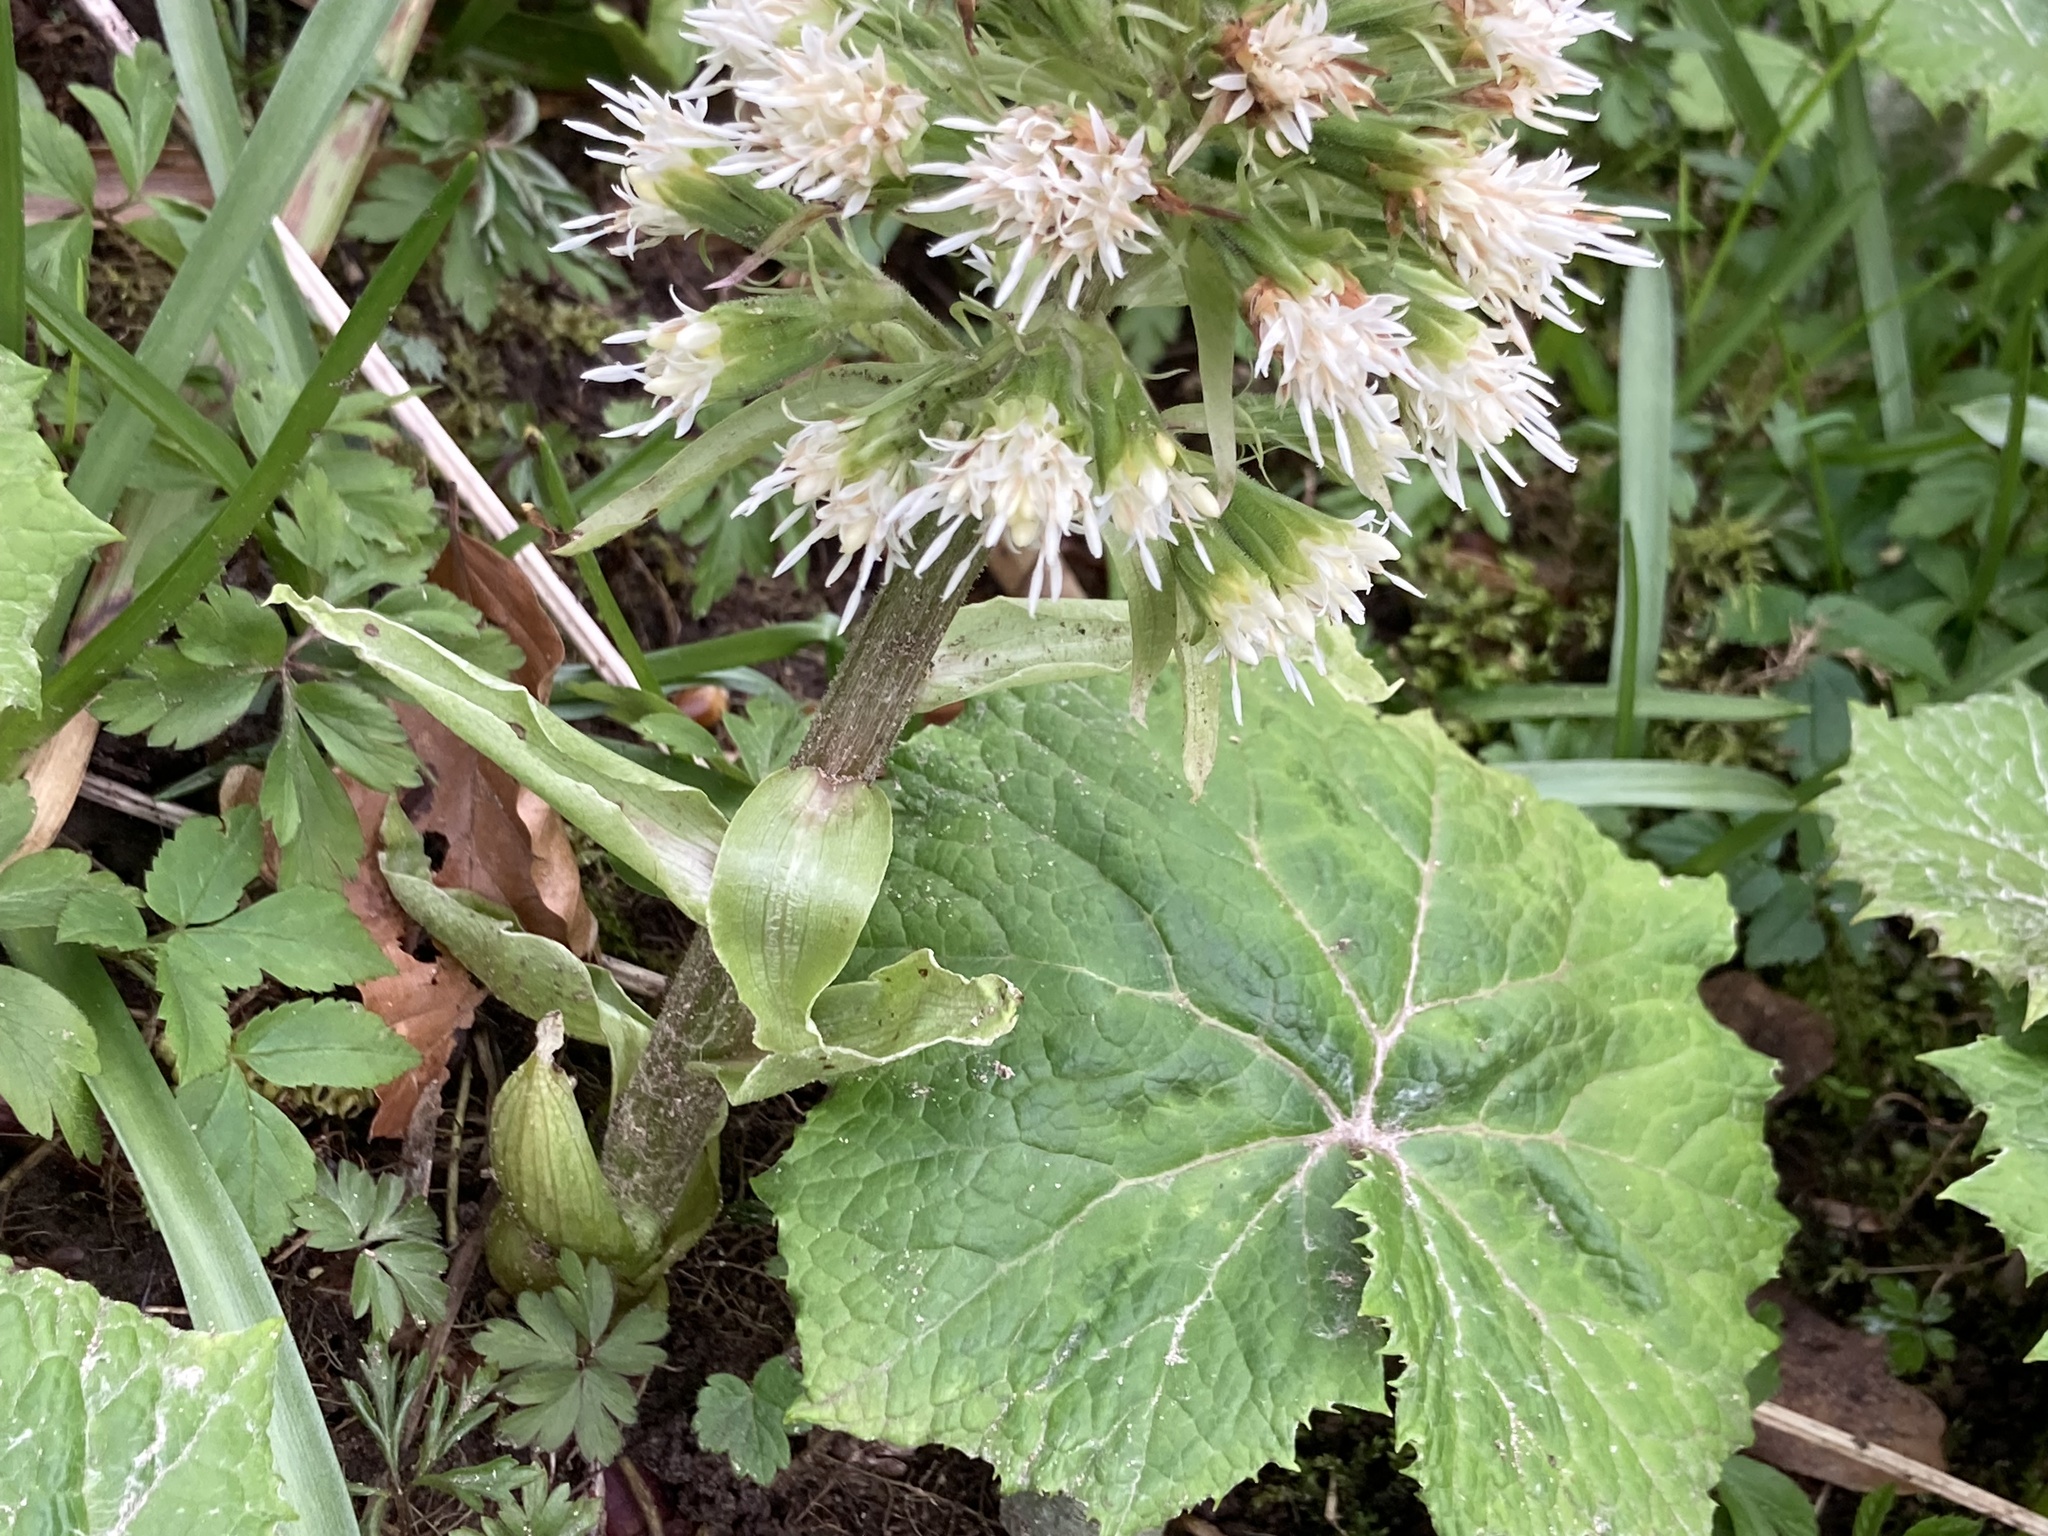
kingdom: Plantae
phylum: Tracheophyta
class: Magnoliopsida
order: Asterales
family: Asteraceae
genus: Petasites
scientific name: Petasites albus
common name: White butterbur
